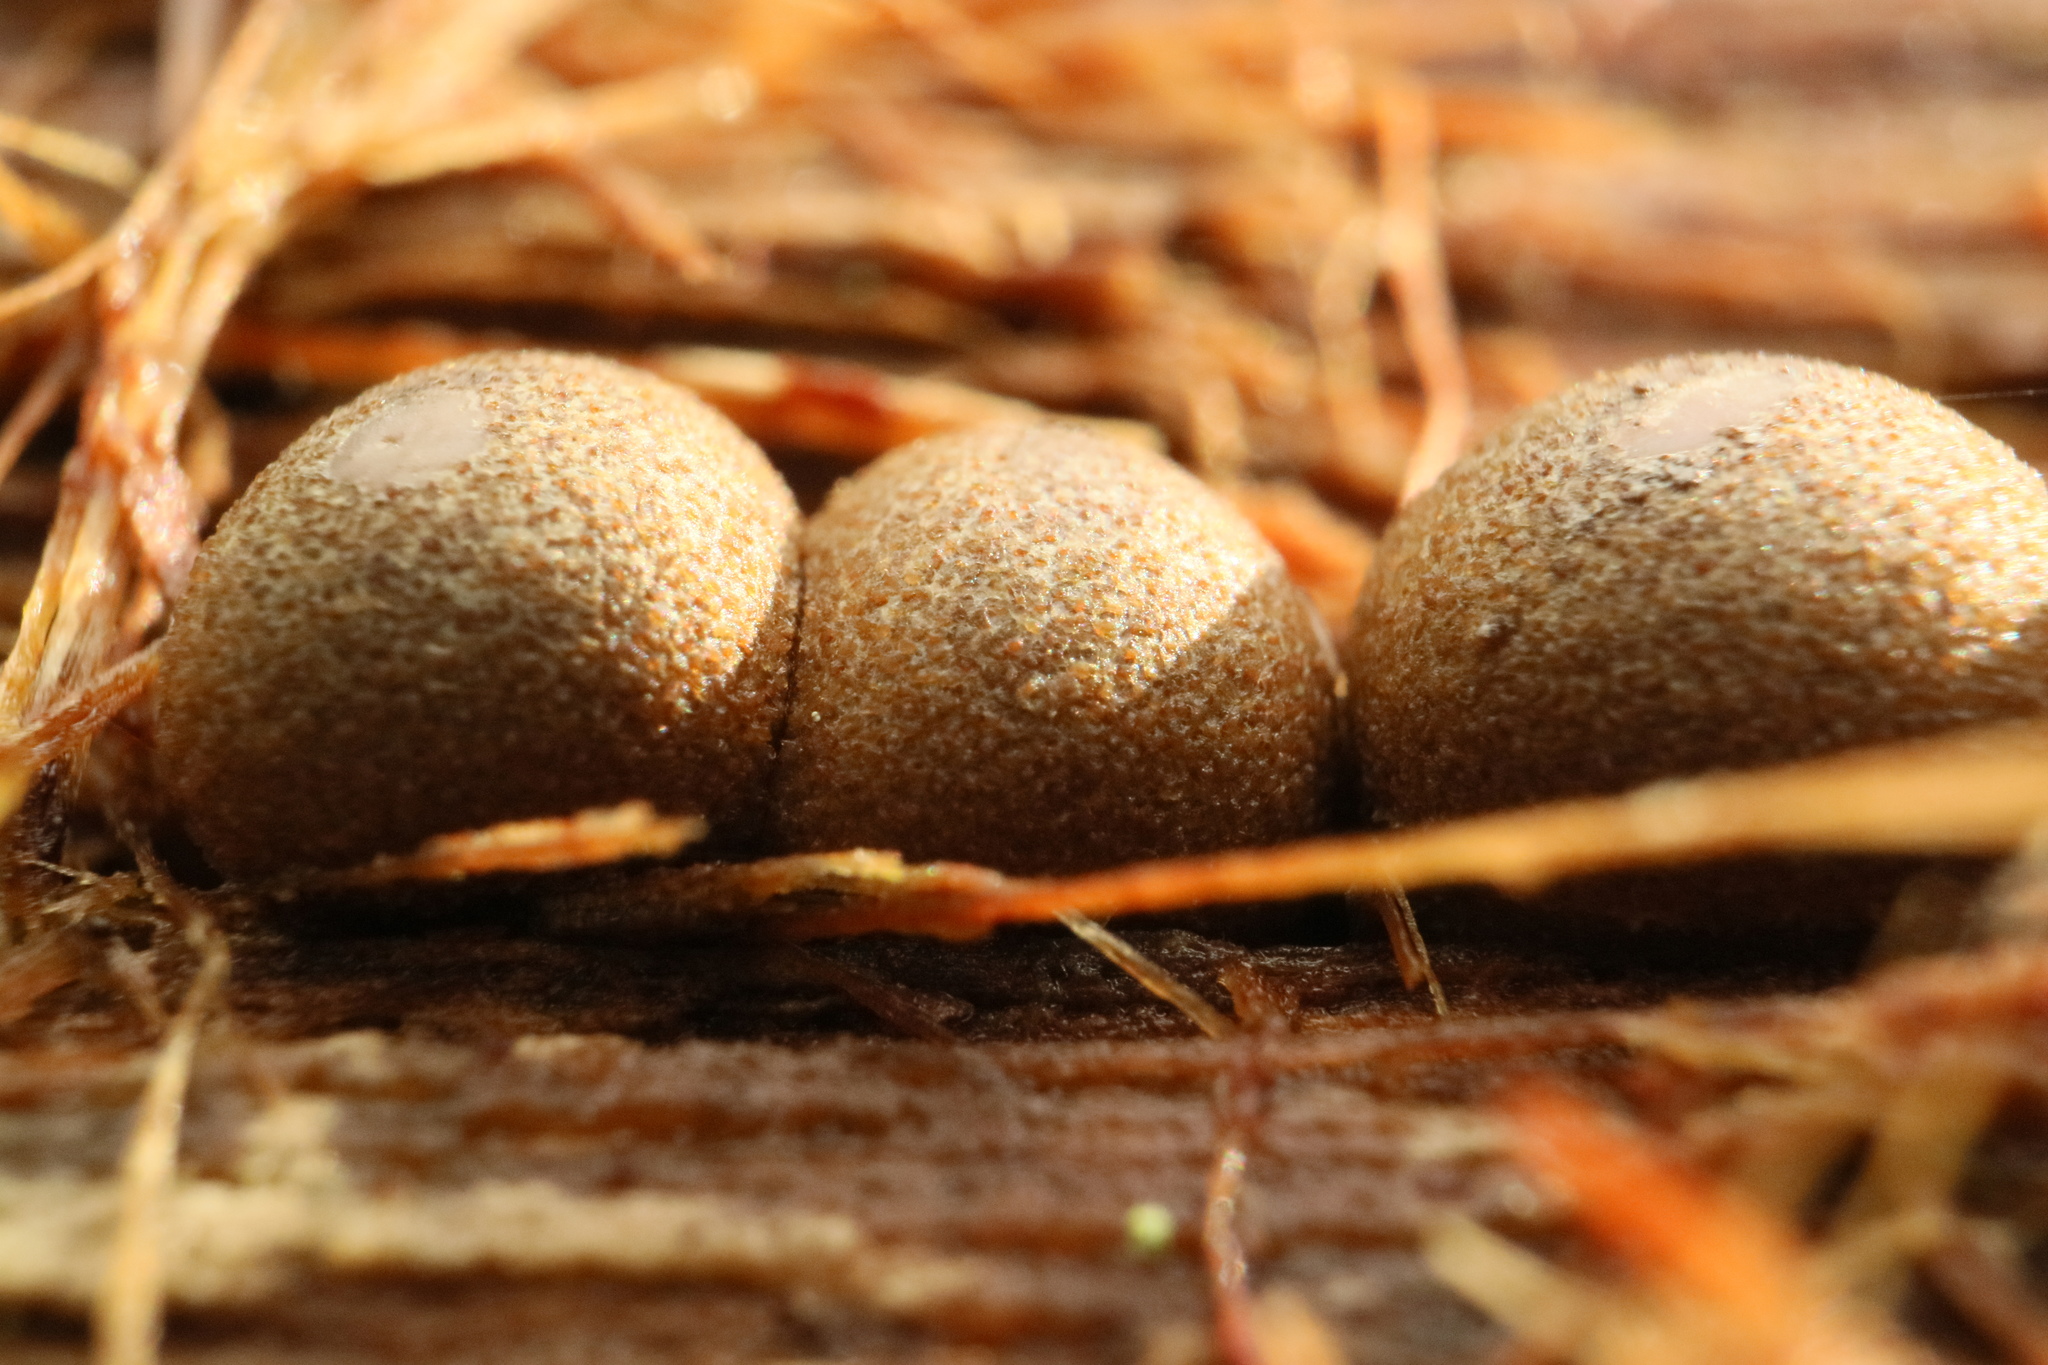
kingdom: Protozoa
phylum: Mycetozoa
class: Myxomycetes
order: Cribrariales
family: Tubiferaceae
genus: Lycogala
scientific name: Lycogala epidendrum
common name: Wolf's milk
